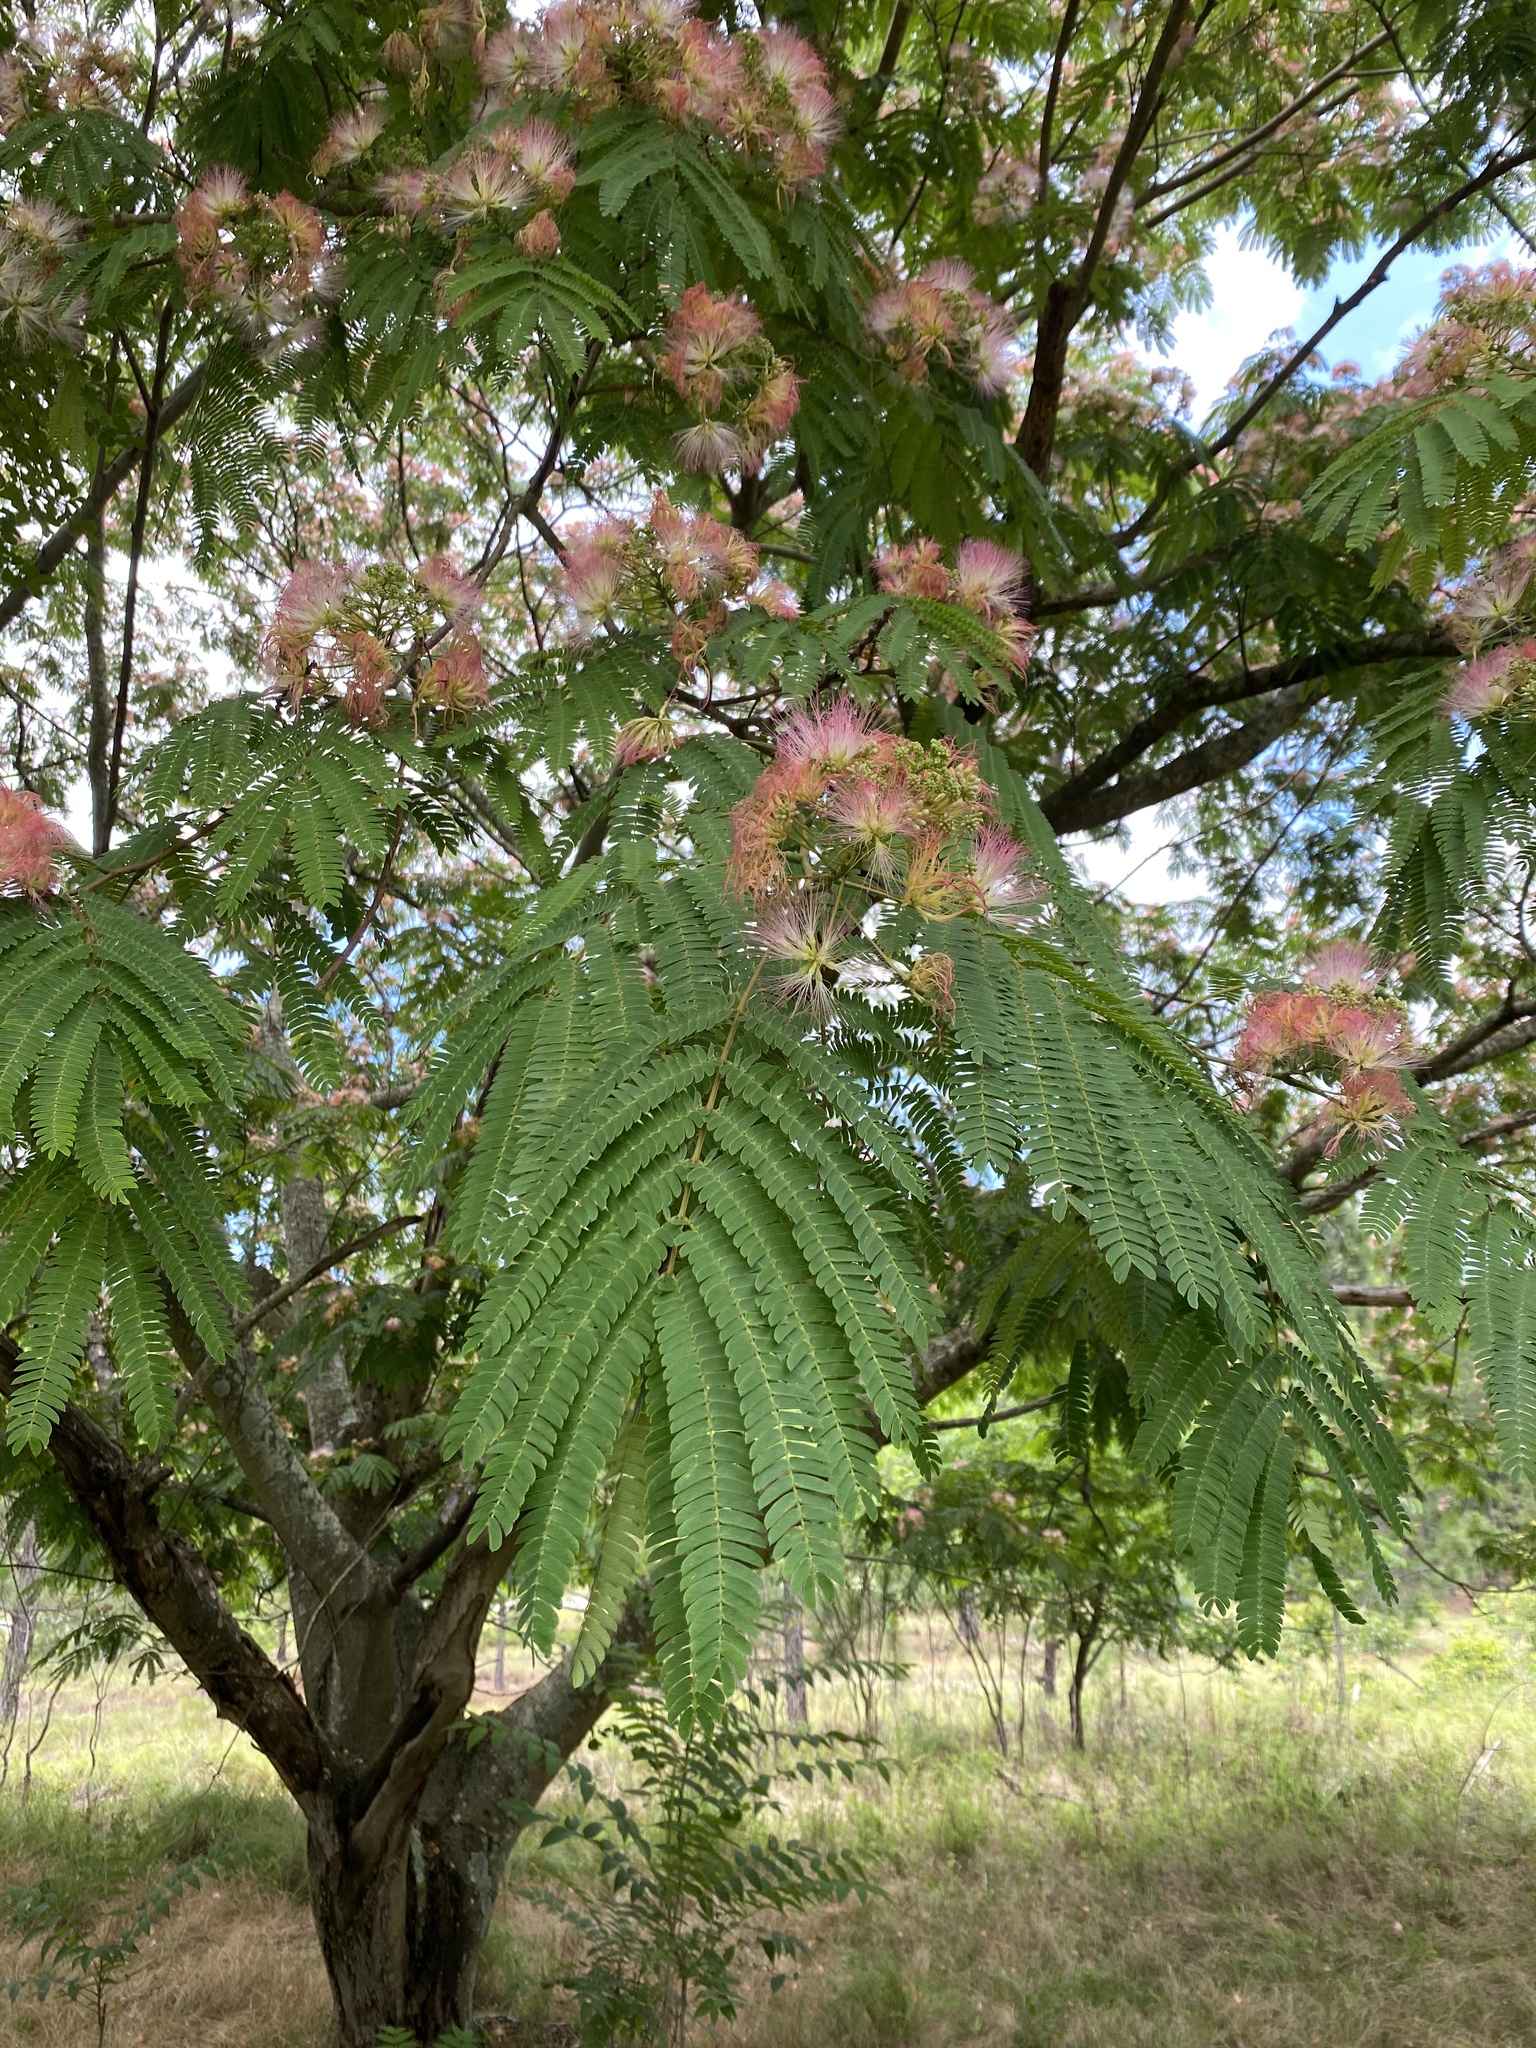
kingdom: Plantae
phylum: Tracheophyta
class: Magnoliopsida
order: Fabales
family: Fabaceae
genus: Albizia
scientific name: Albizia julibrissin
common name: Silktree
